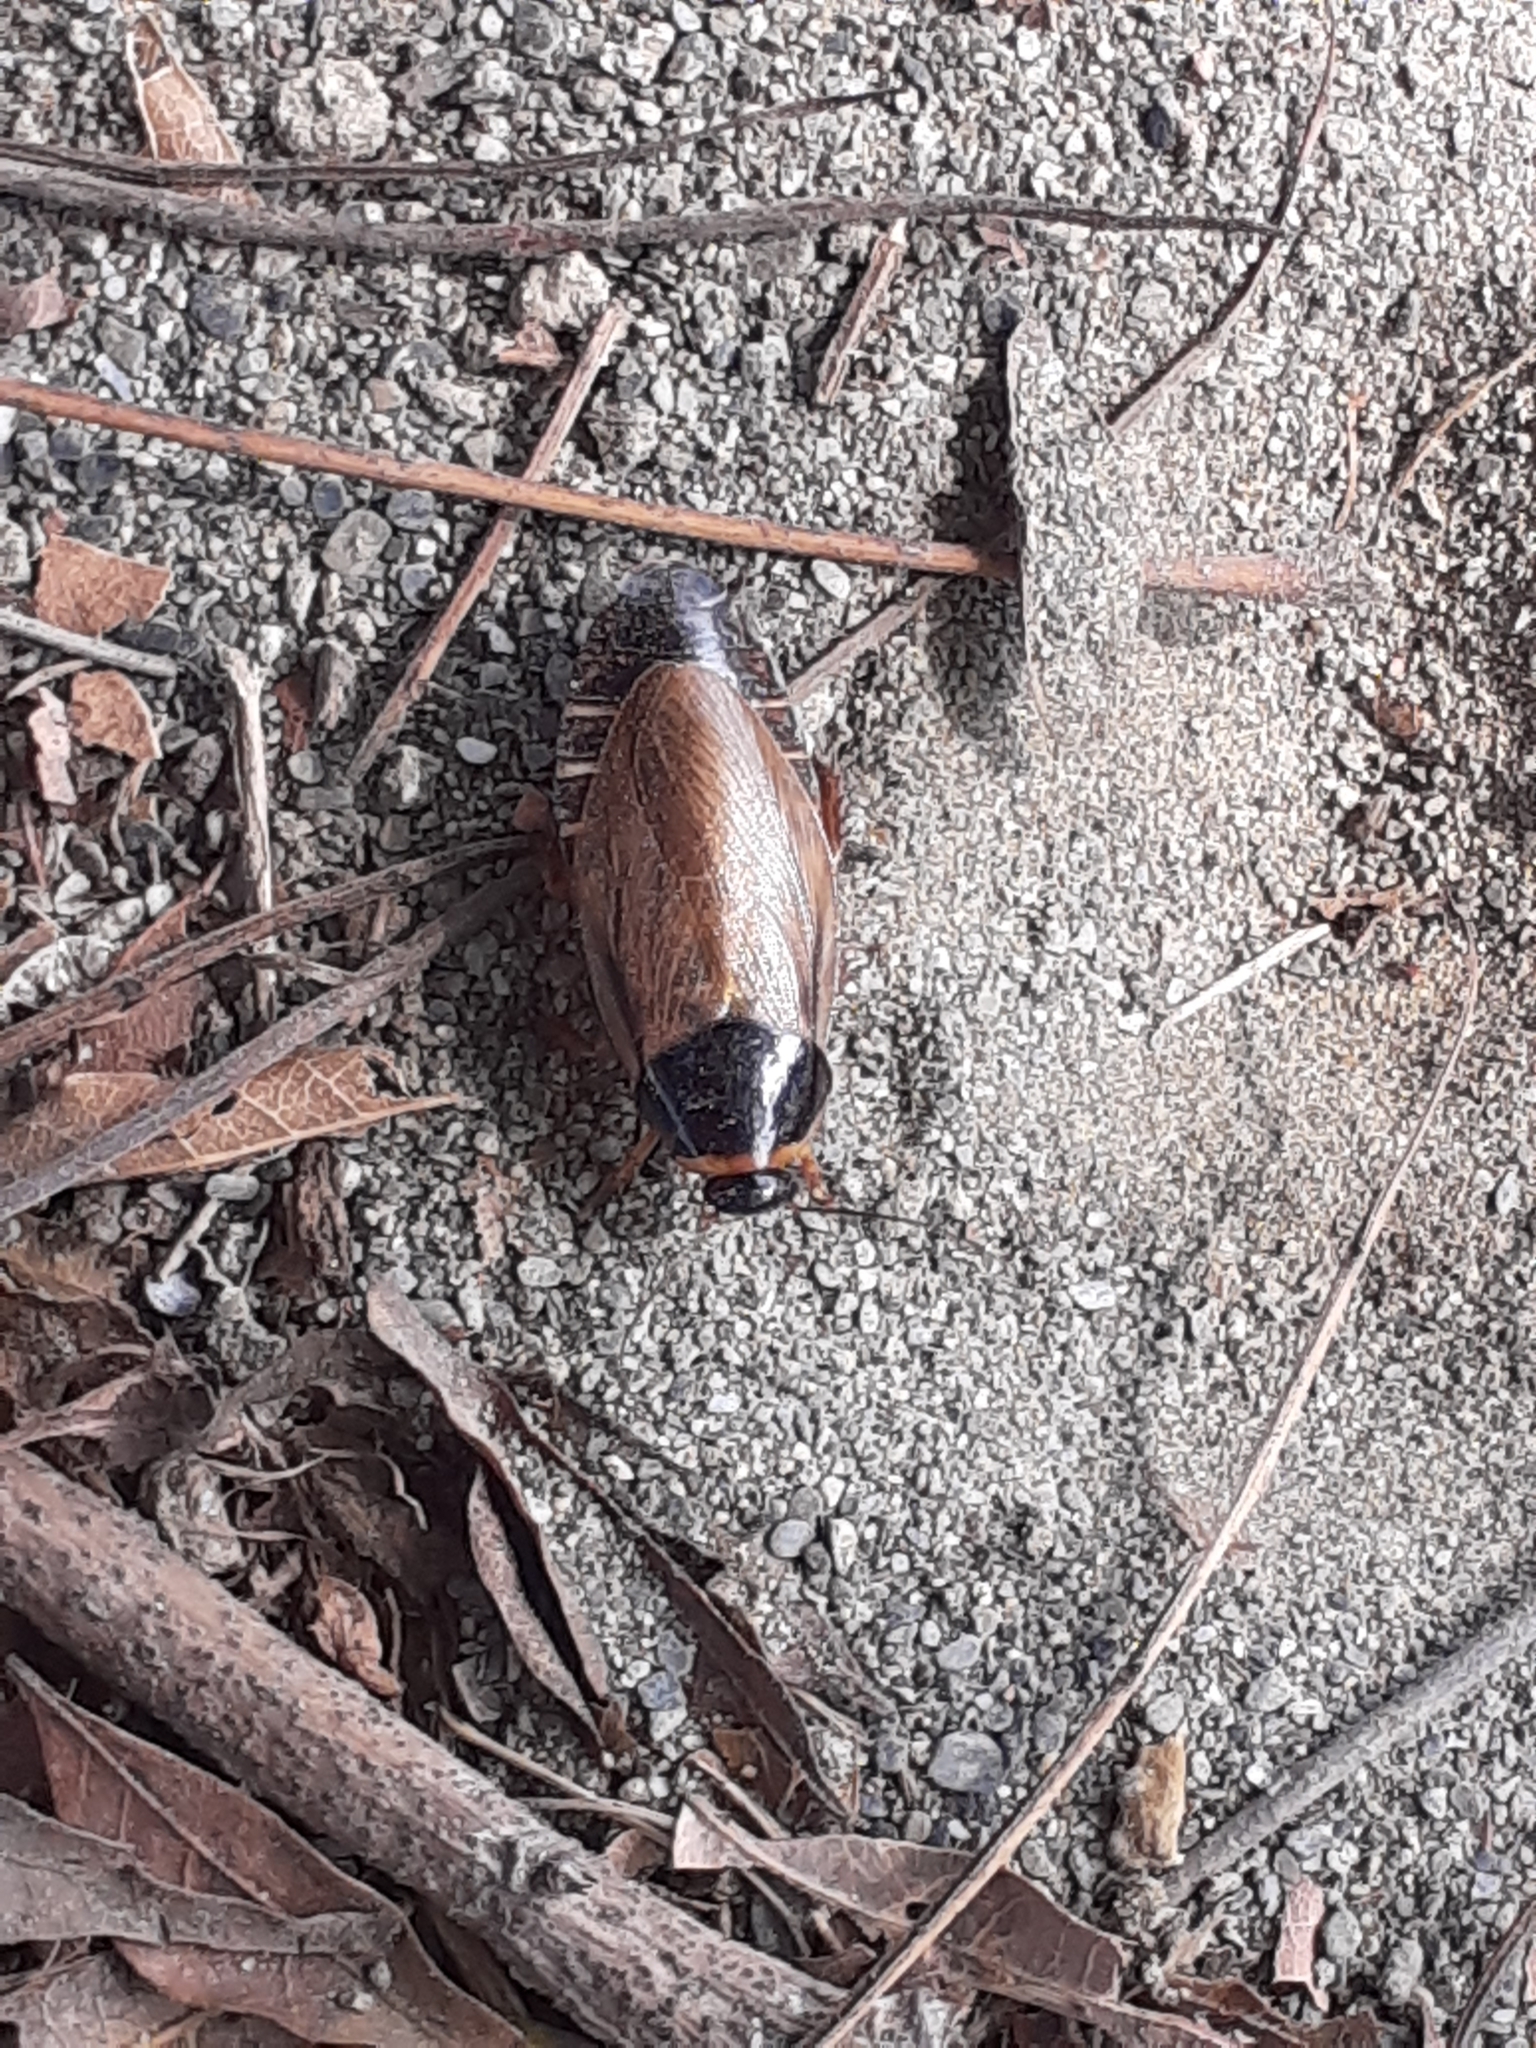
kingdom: Animalia
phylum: Arthropoda
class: Insecta
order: Blattodea
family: Blaberidae
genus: Pycnoscelus
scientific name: Pycnoscelus indicus
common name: Burrowing cockroach
